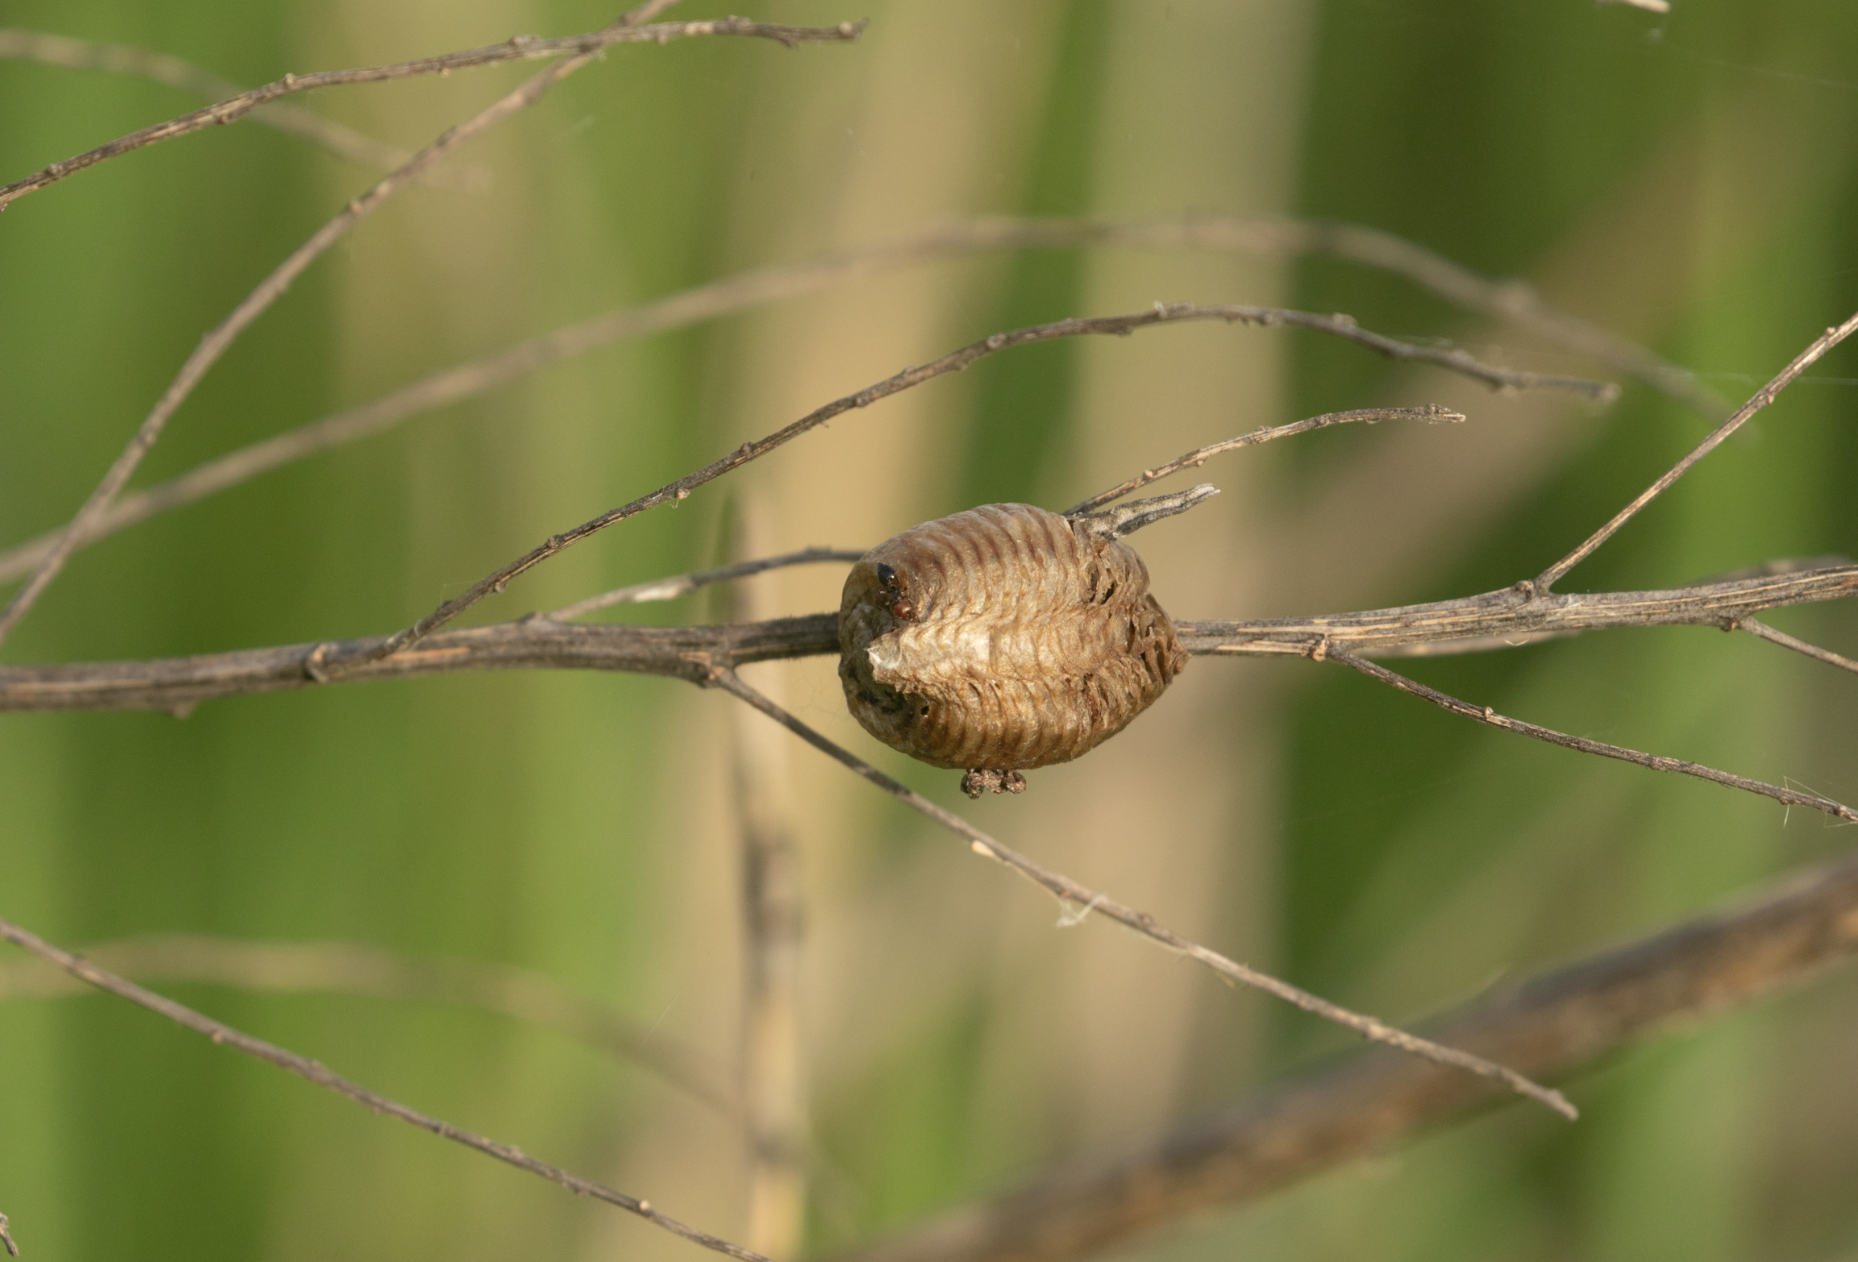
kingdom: Animalia
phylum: Arthropoda
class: Insecta
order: Mantodea
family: Mantidae
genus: Hierodula
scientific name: Hierodula transcaucasica
